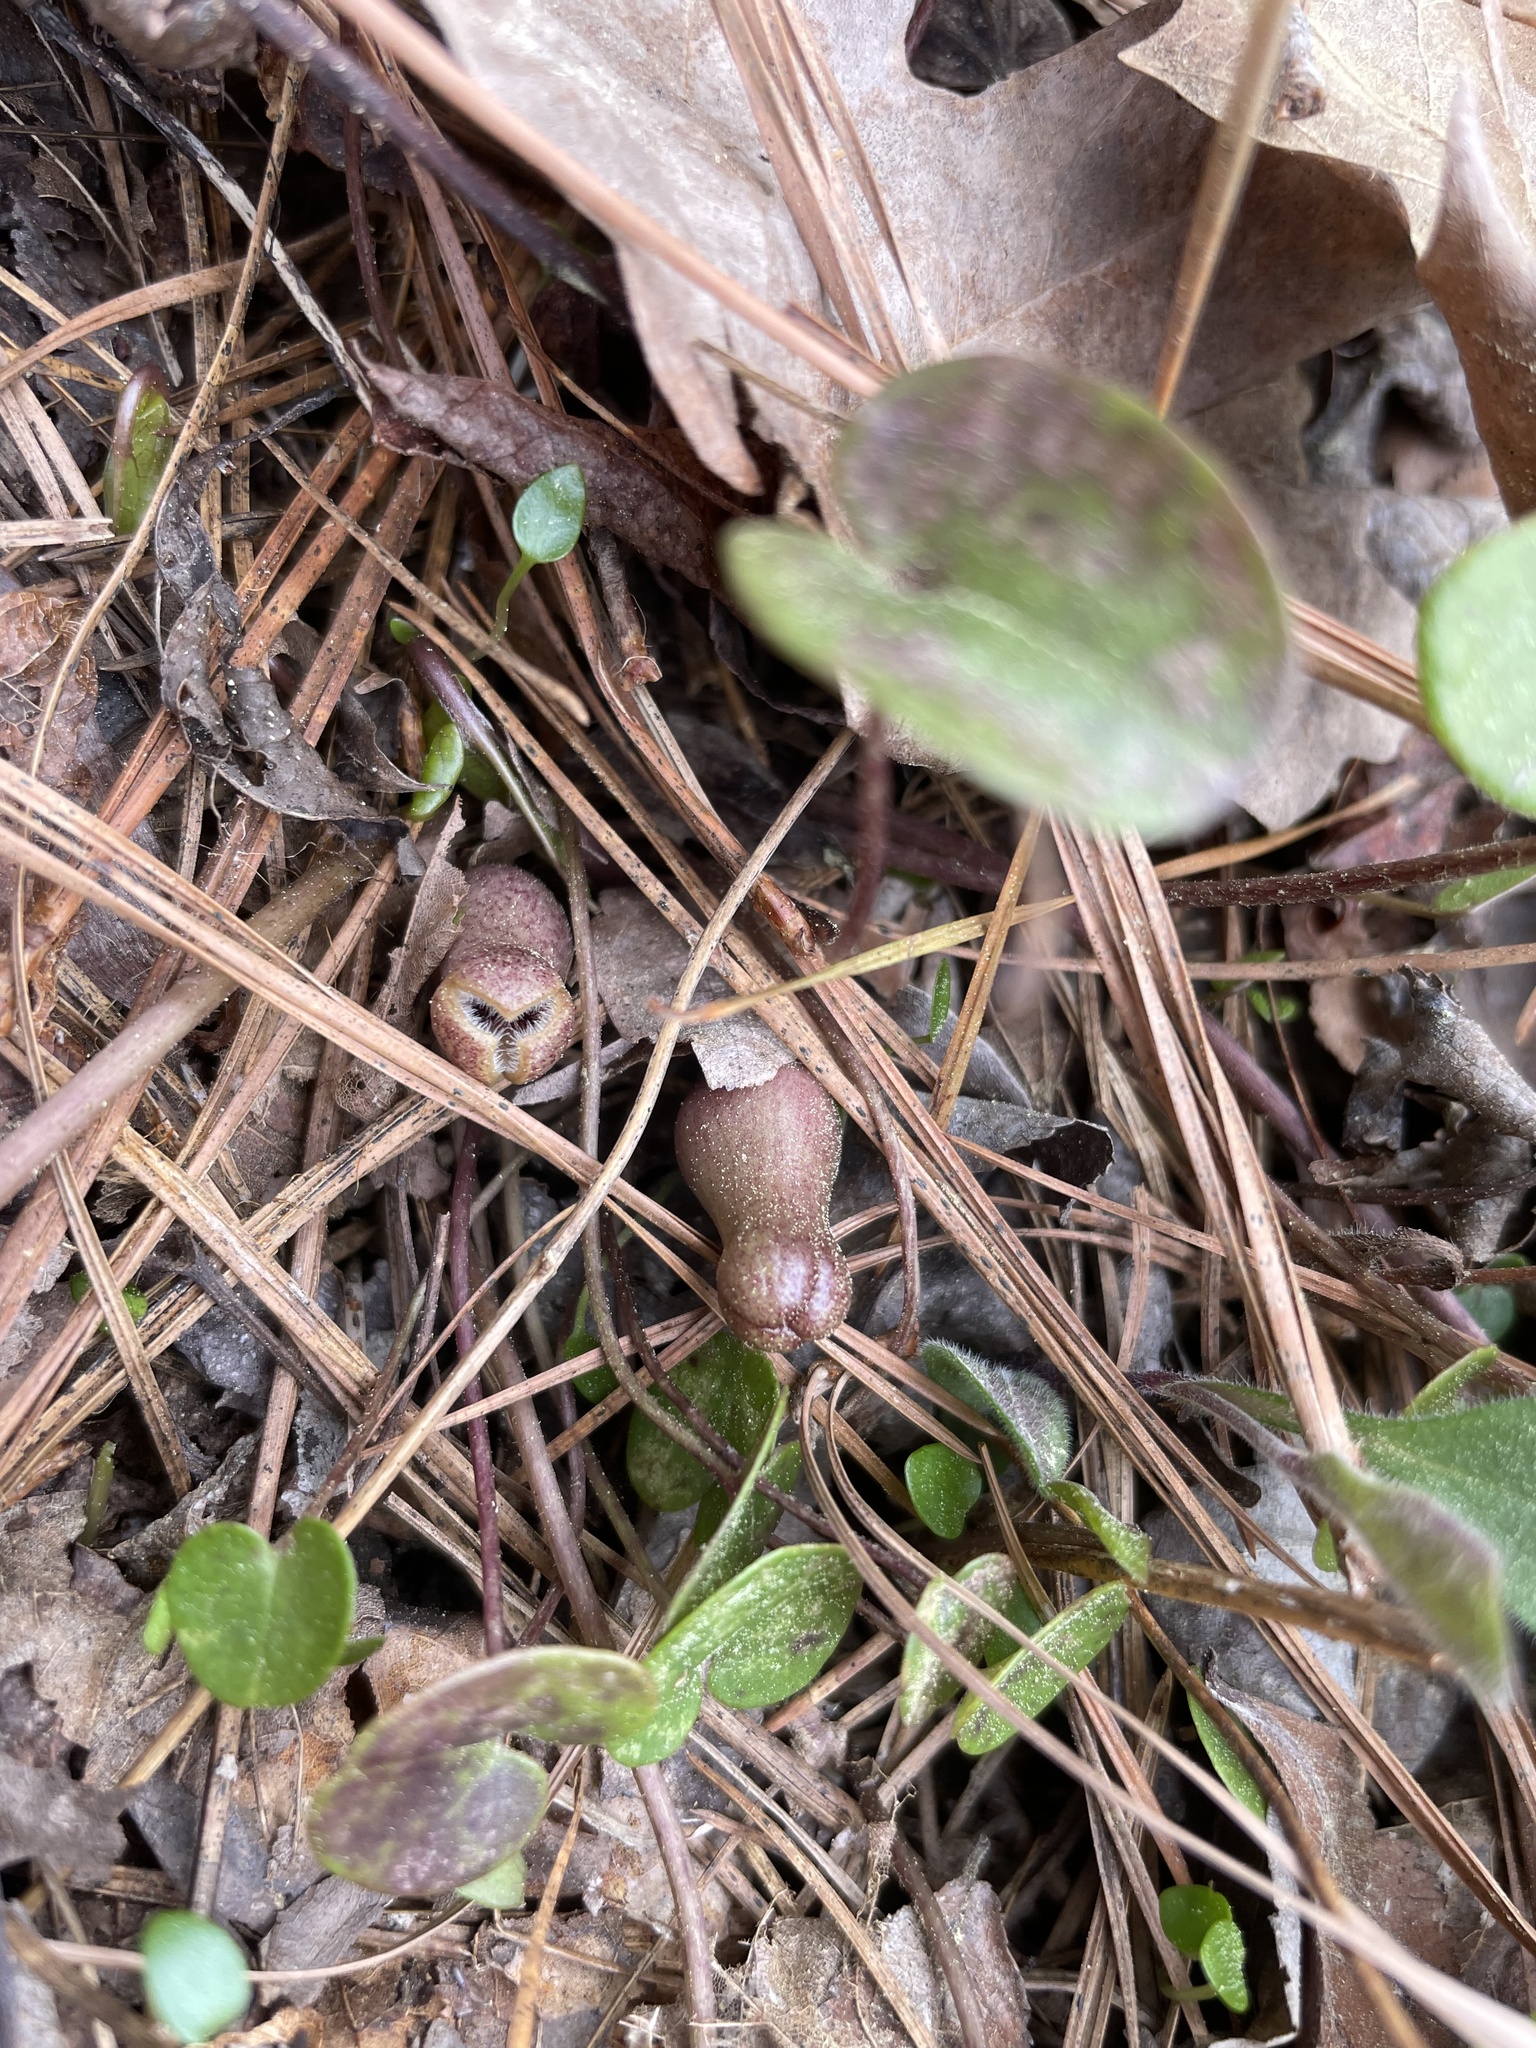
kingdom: Plantae
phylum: Tracheophyta
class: Magnoliopsida
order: Piperales
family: Aristolochiaceae
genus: Hexastylis
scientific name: Hexastylis arifolia
